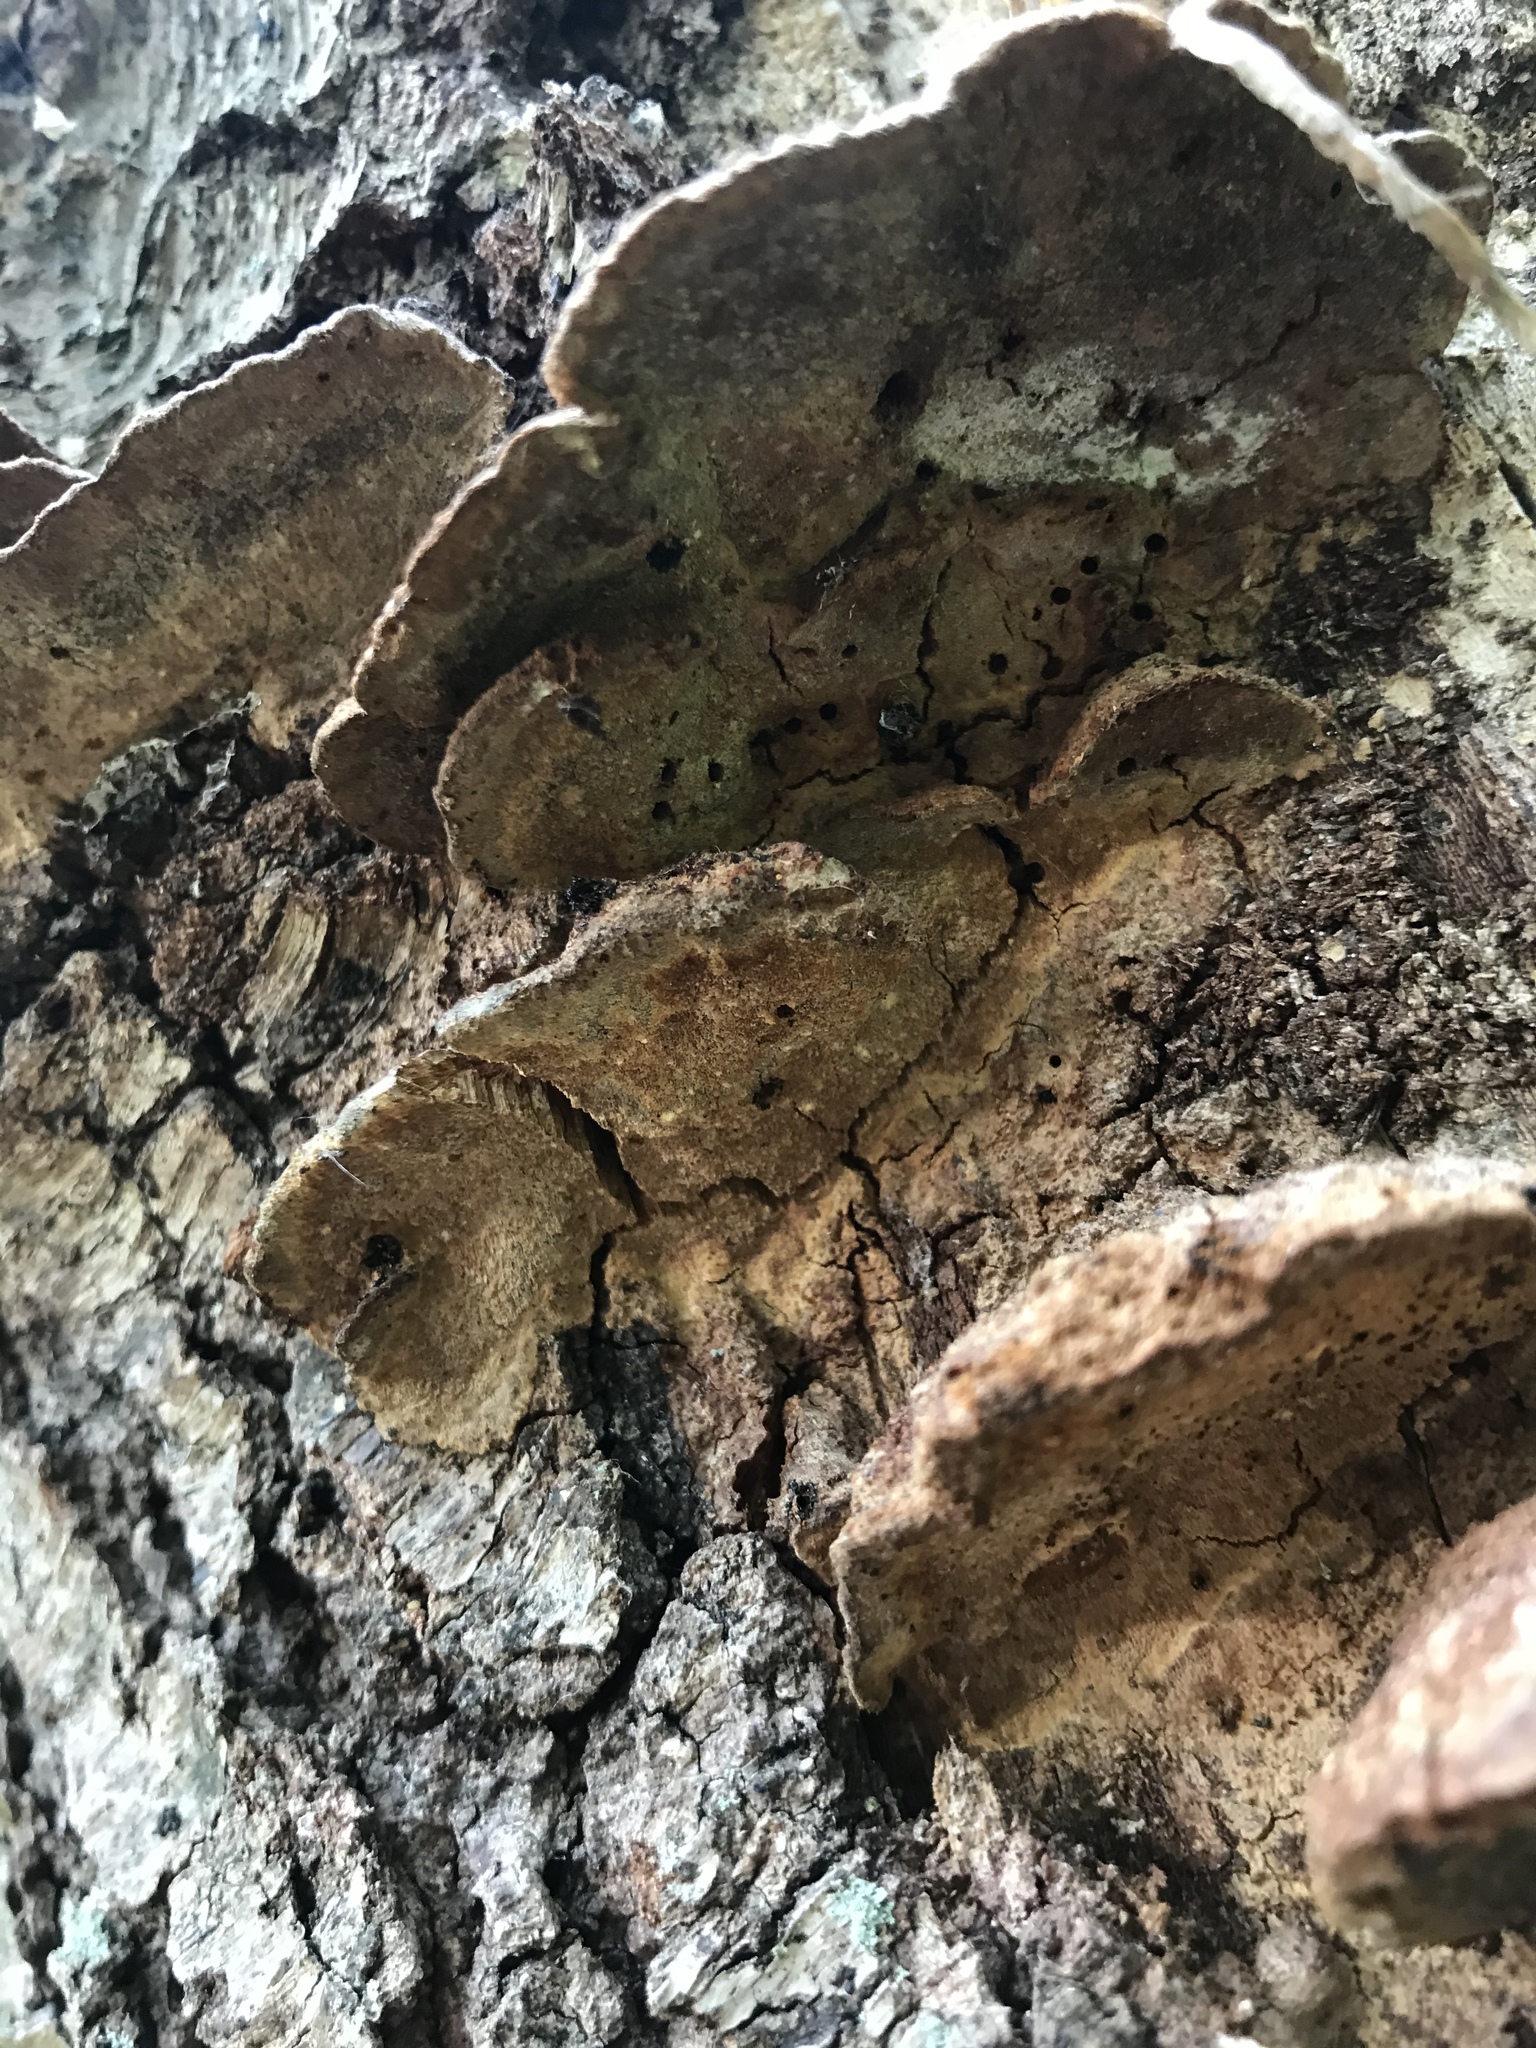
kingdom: Fungi
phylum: Basidiomycota
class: Agaricomycetes
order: Hymenochaetales
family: Hymenochaetaceae
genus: Phellinus
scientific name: Phellinus gilvus
